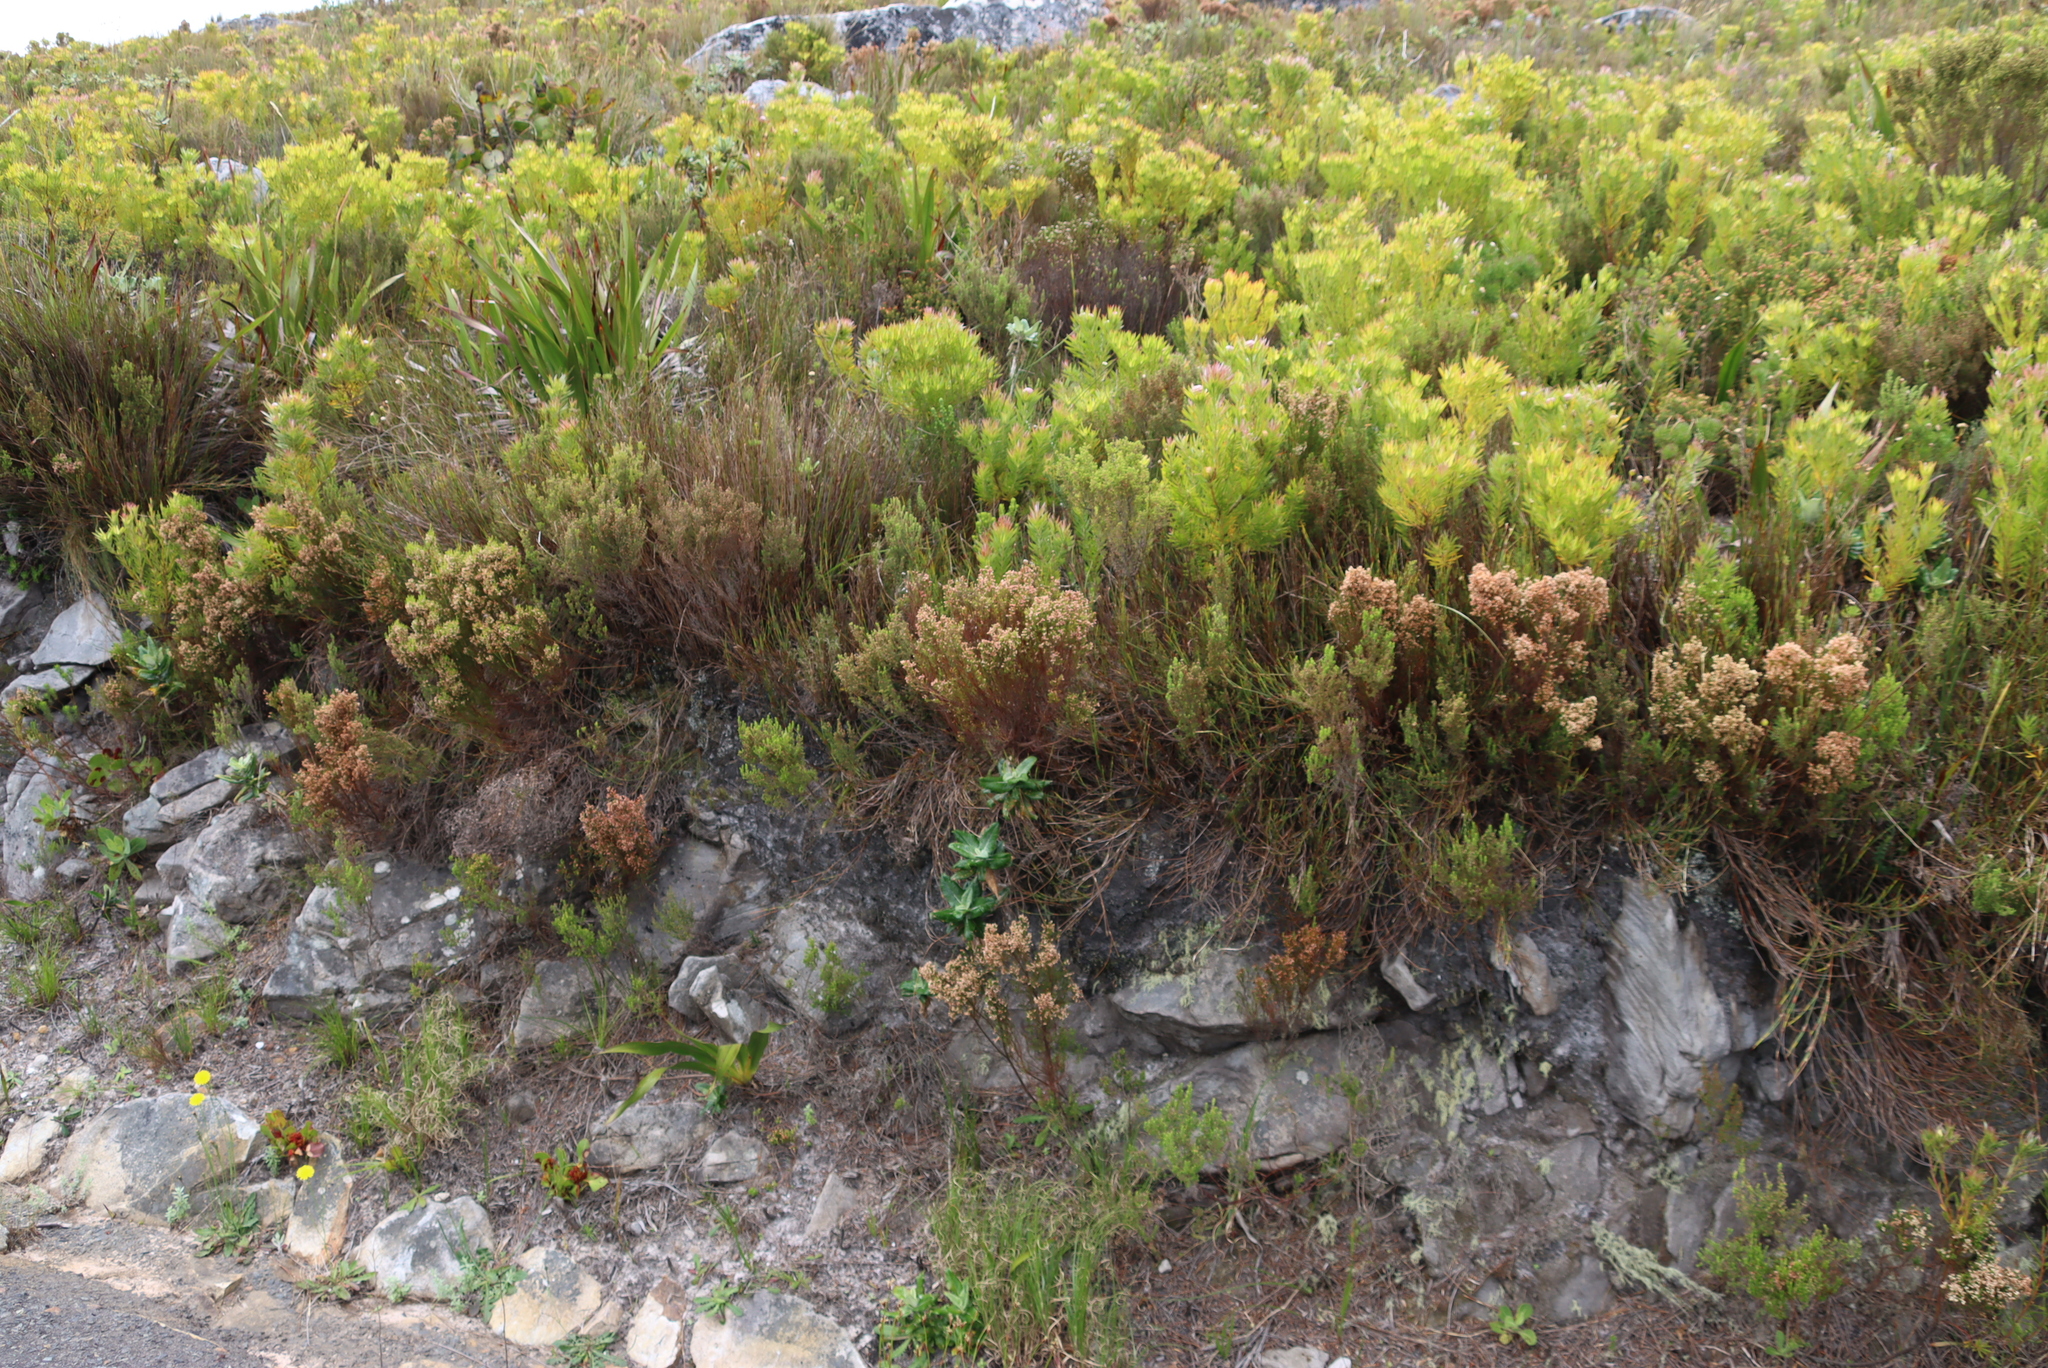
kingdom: Plantae
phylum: Tracheophyta
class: Magnoliopsida
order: Proteales
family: Proteaceae
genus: Leucadendron
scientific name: Leucadendron xanthoconus
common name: Sickle-leaf conebush
